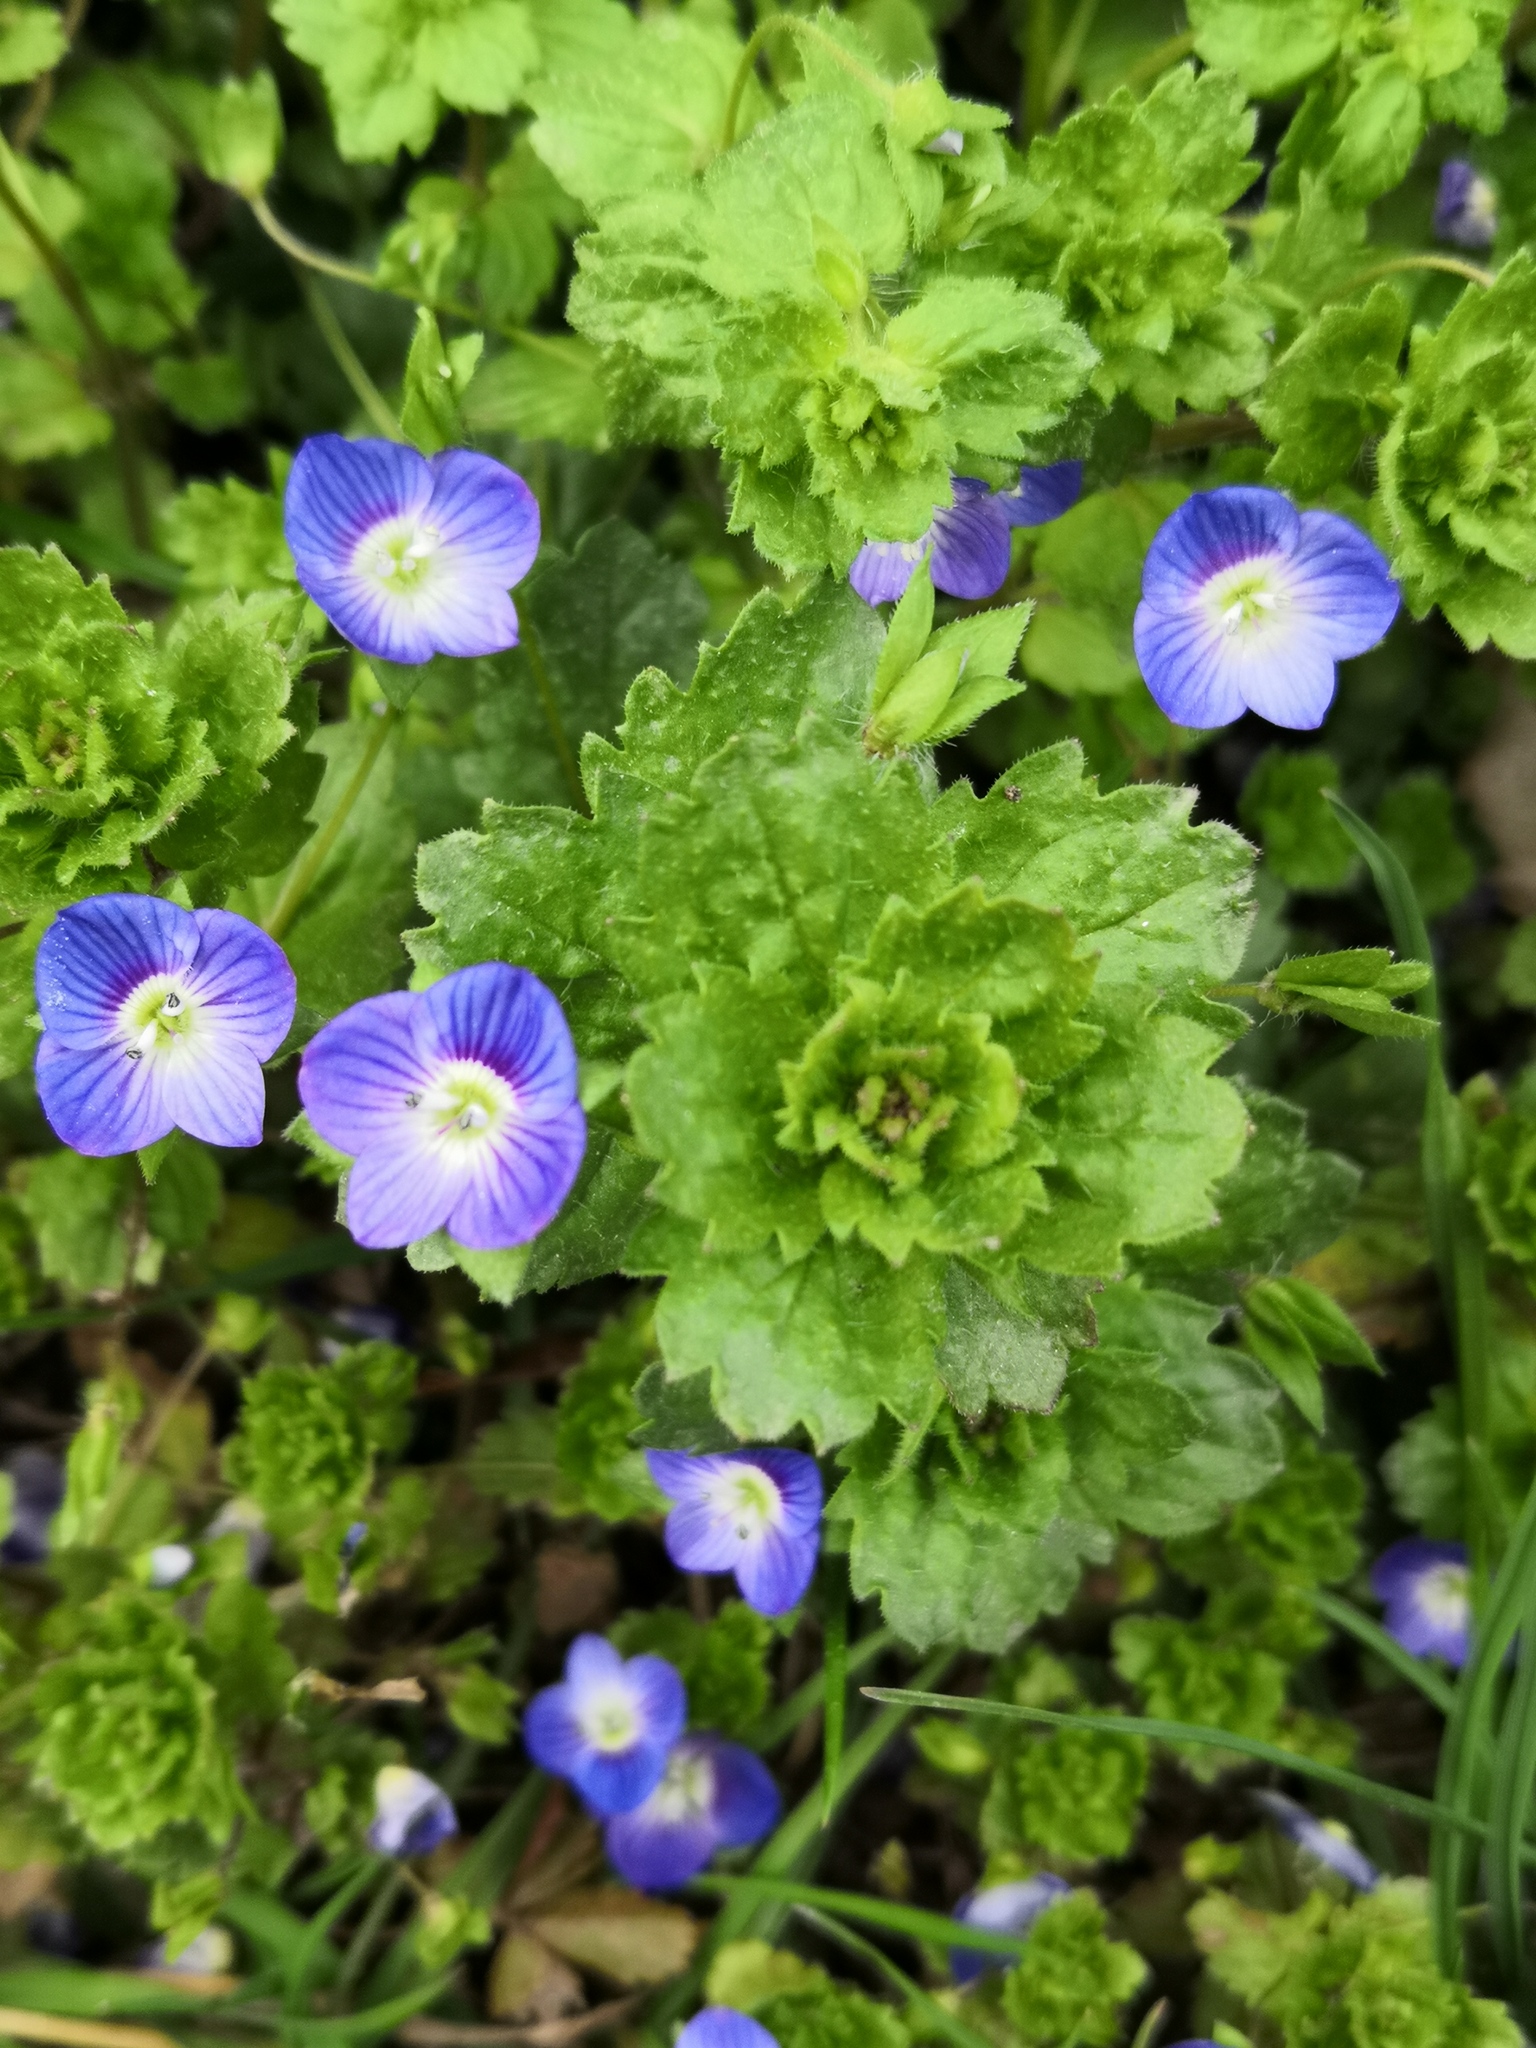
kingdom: Plantae
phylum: Tracheophyta
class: Magnoliopsida
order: Lamiales
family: Plantaginaceae
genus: Veronica
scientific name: Veronica persica
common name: Common field-speedwell
